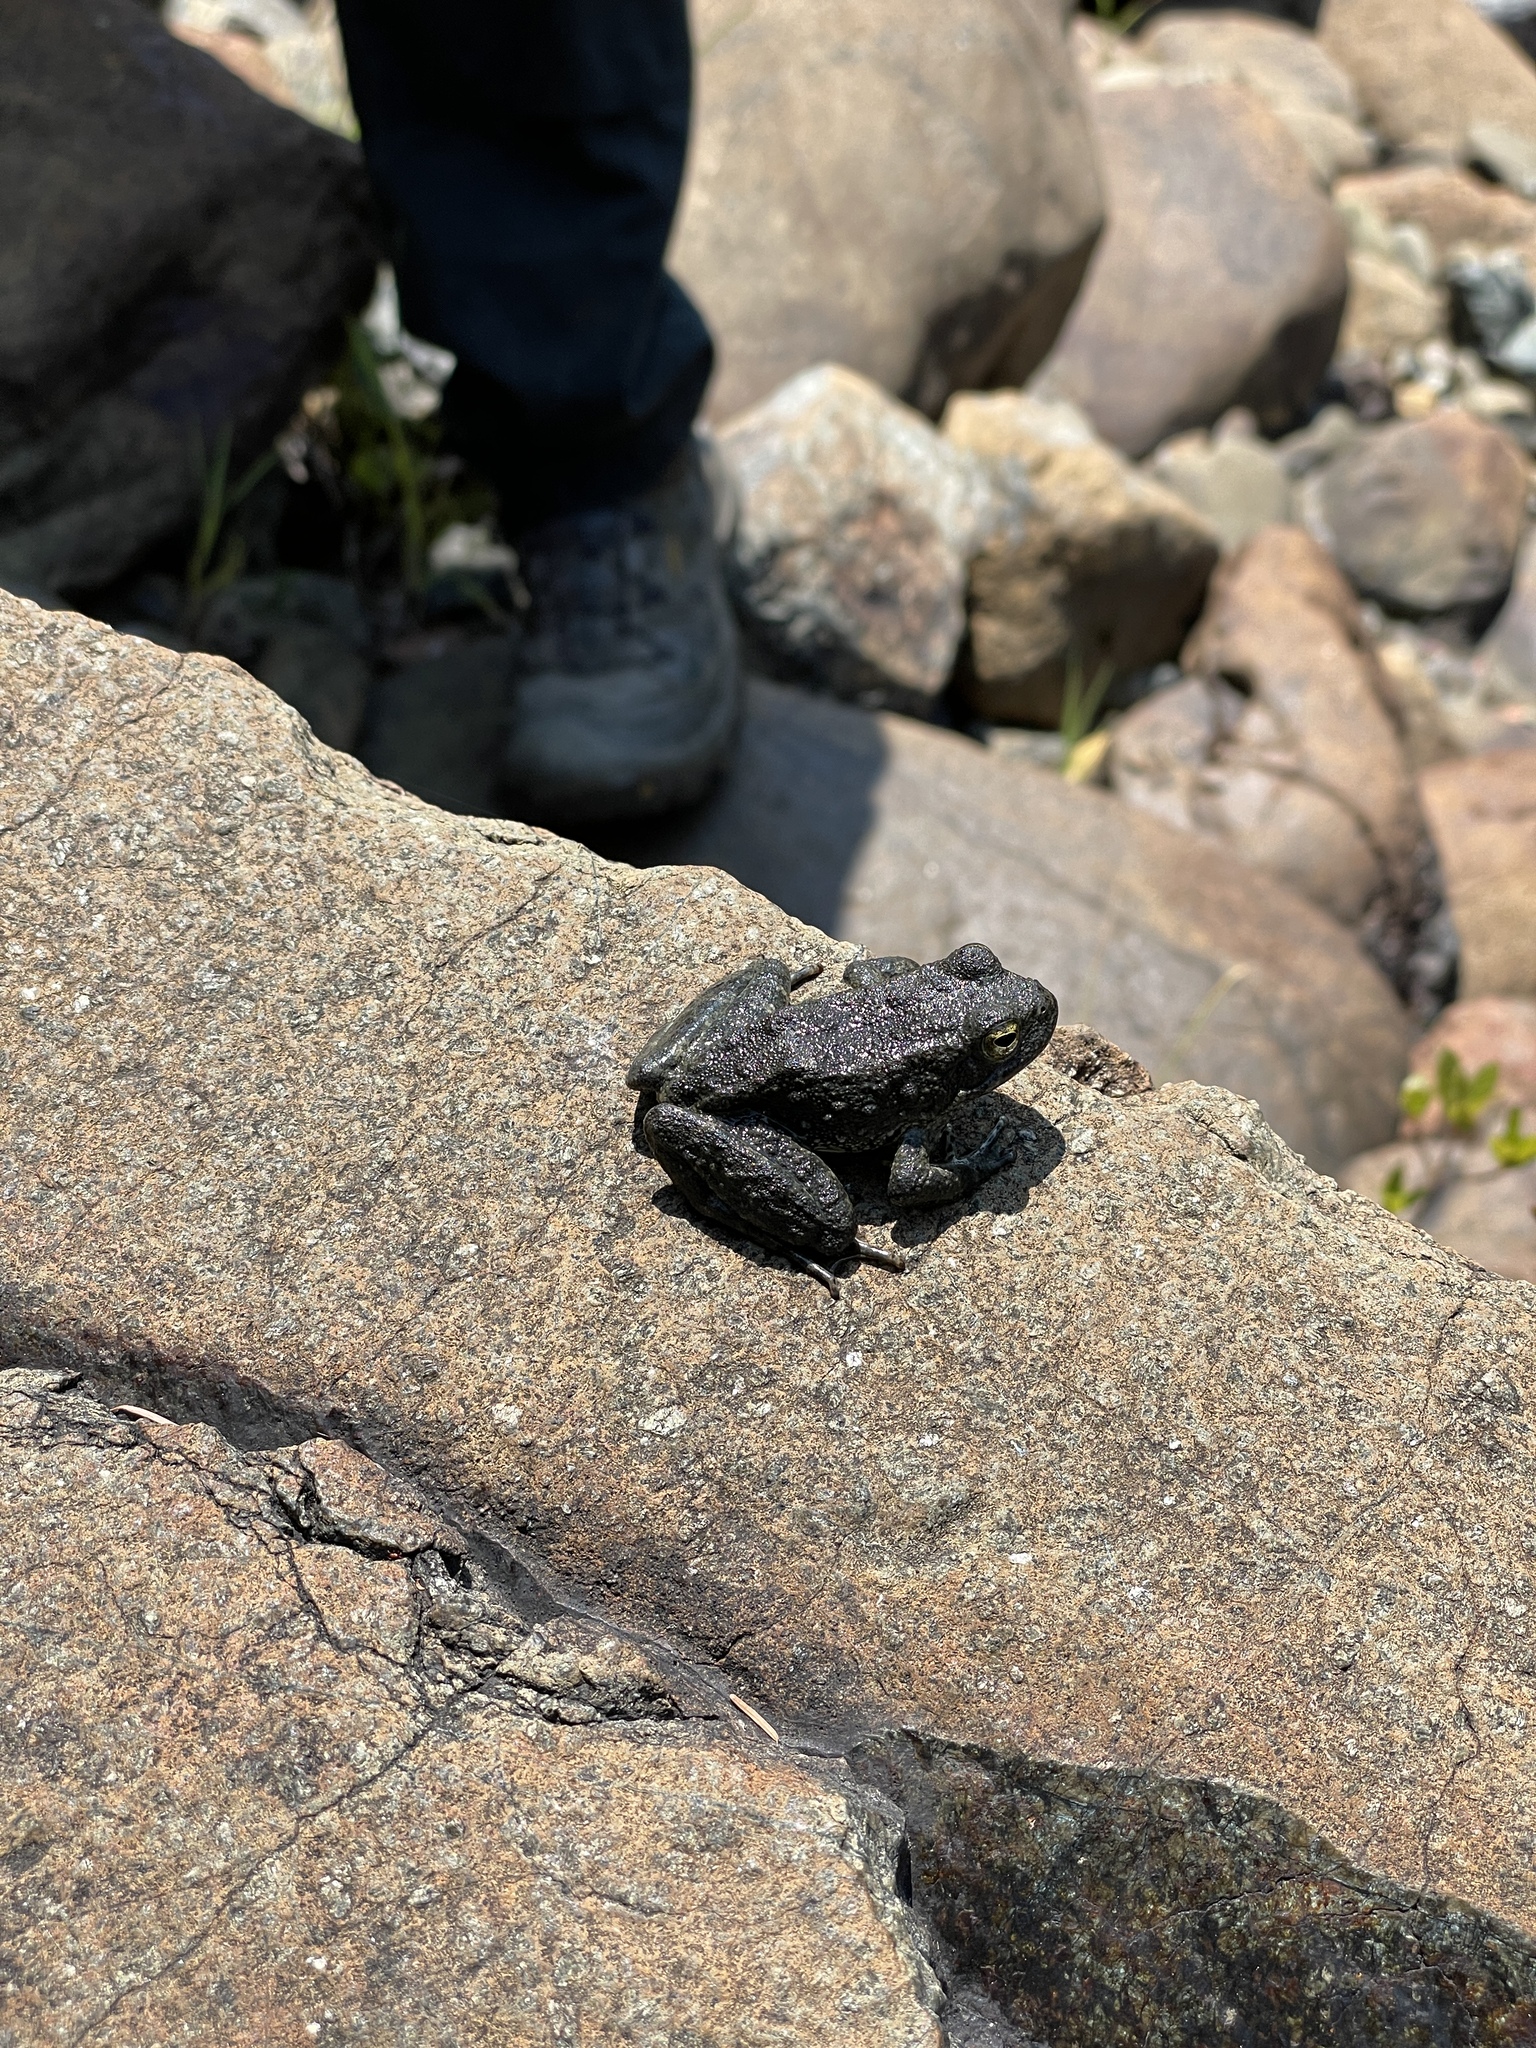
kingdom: Animalia
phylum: Chordata
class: Amphibia
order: Anura
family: Ranidae
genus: Rana
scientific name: Rana boylii
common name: Foothill yellow-legged frog
